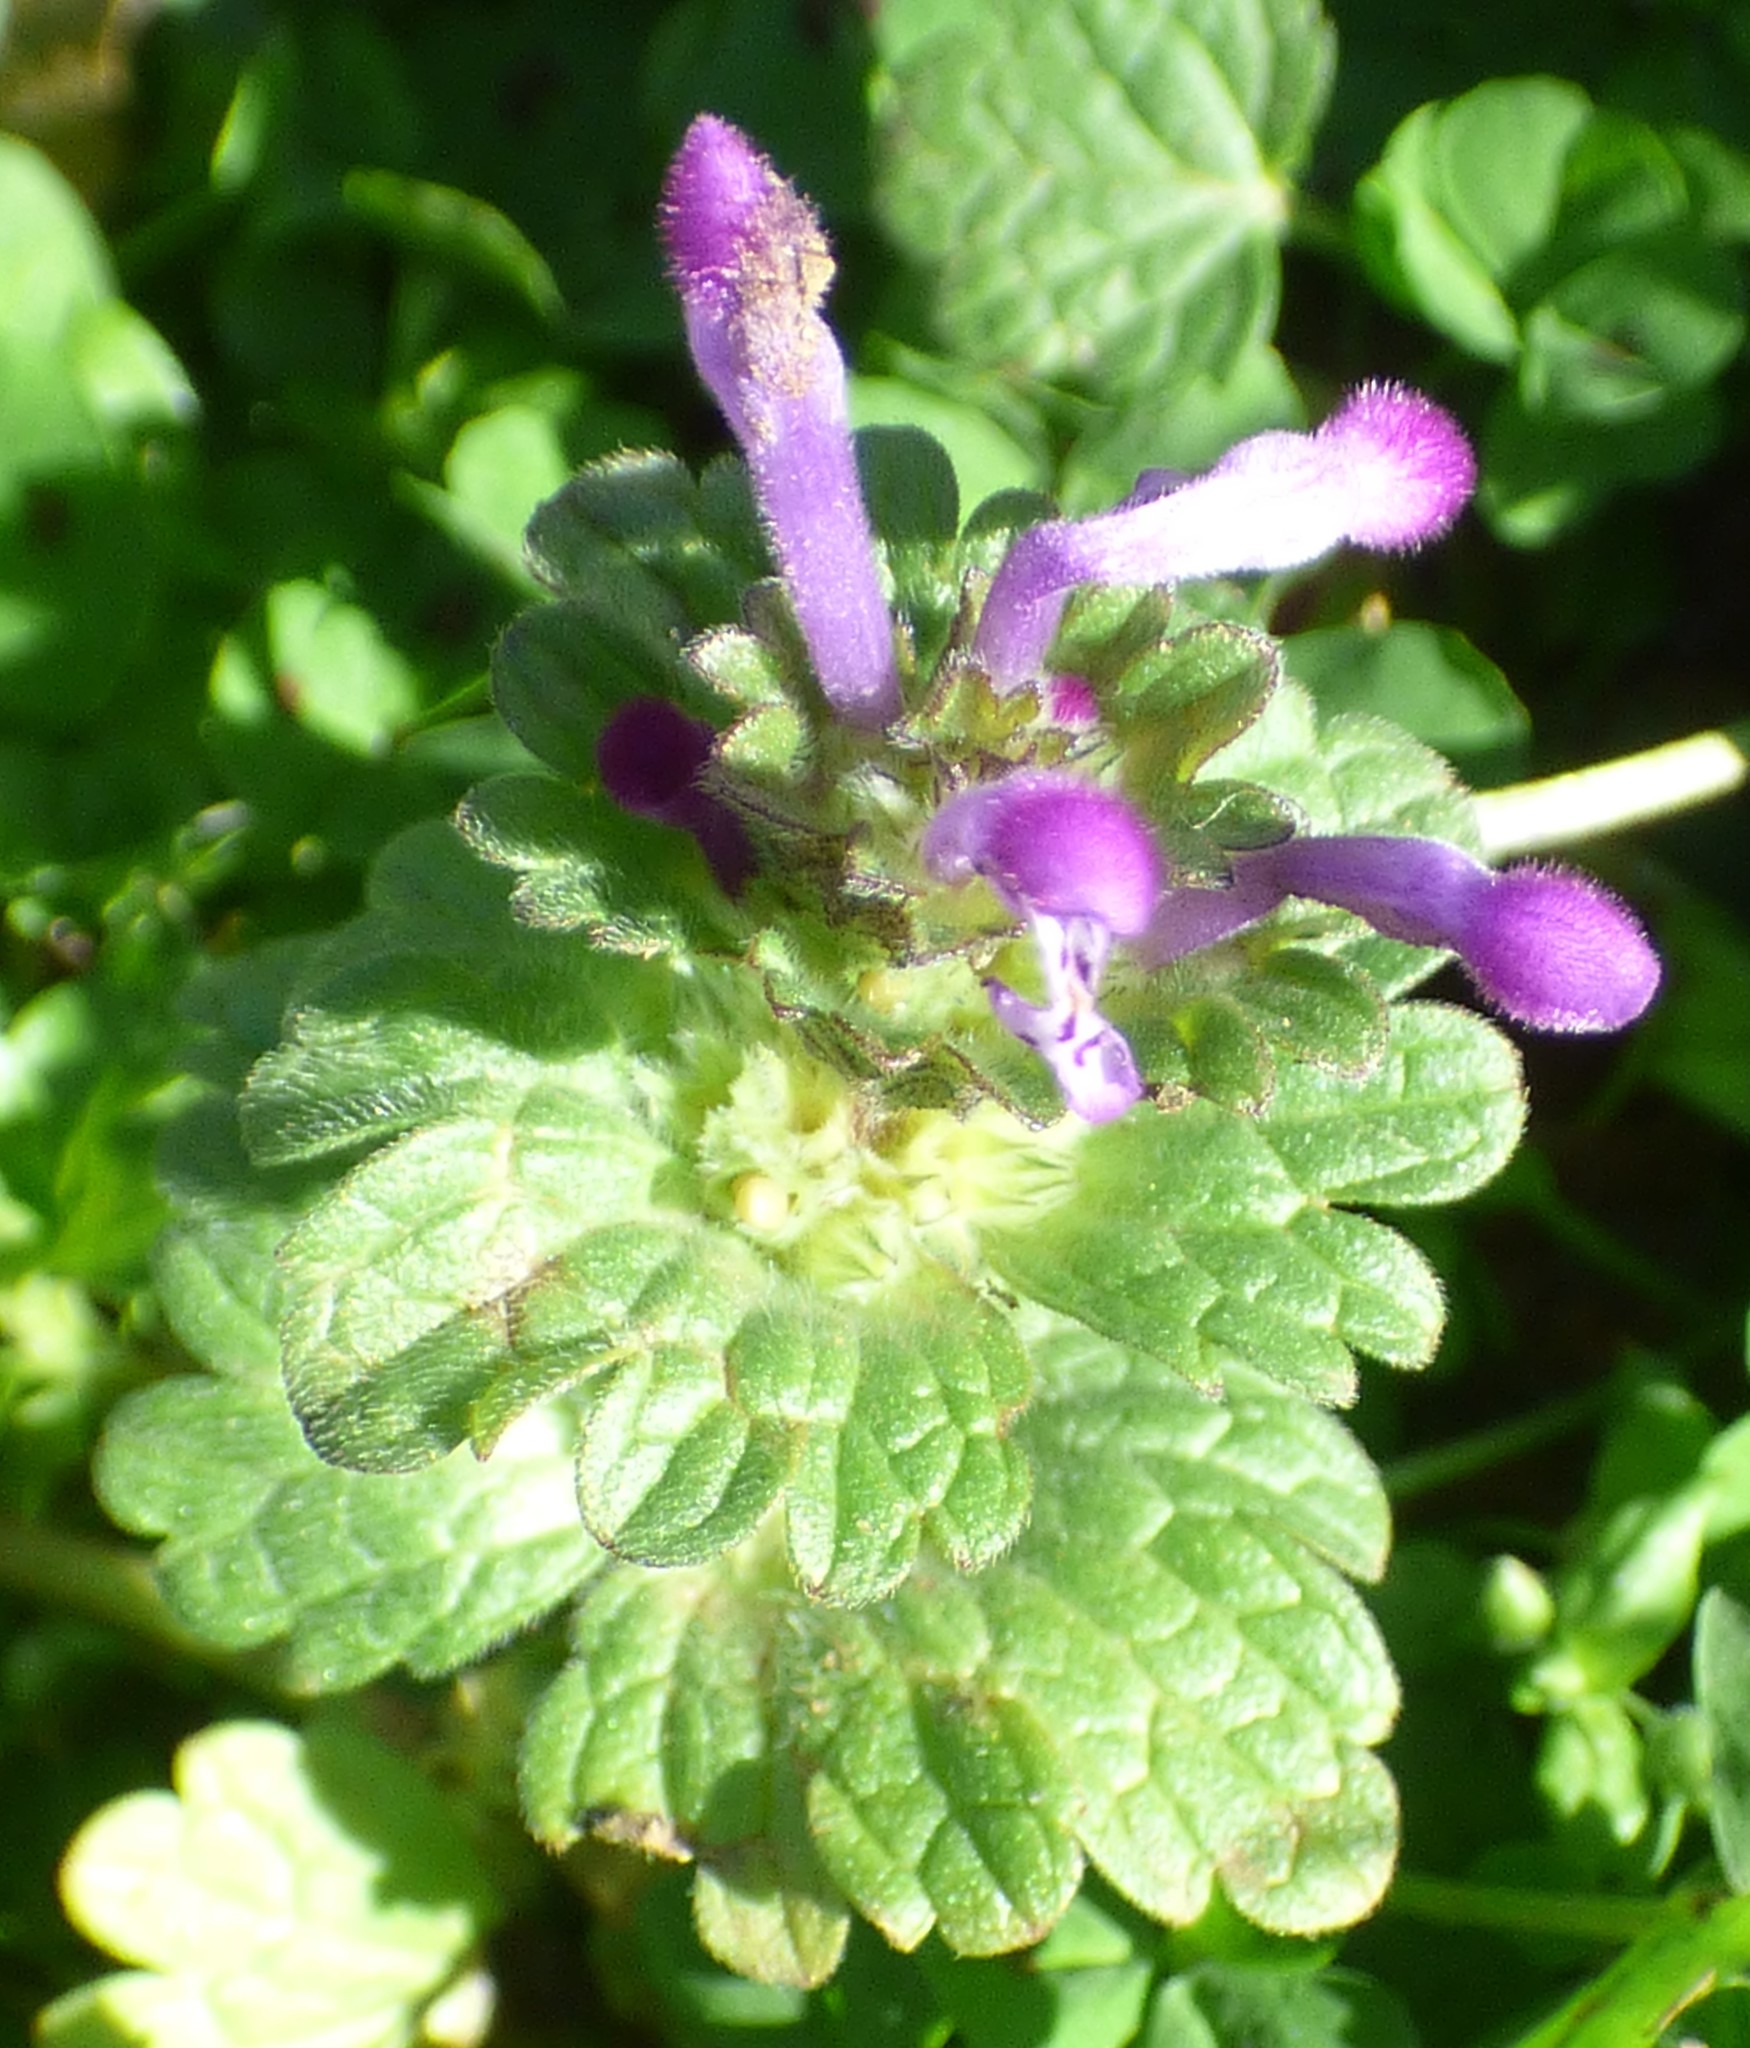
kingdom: Plantae
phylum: Tracheophyta
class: Magnoliopsida
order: Lamiales
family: Lamiaceae
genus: Lamium
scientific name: Lamium amplexicaule
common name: Henbit dead-nettle
